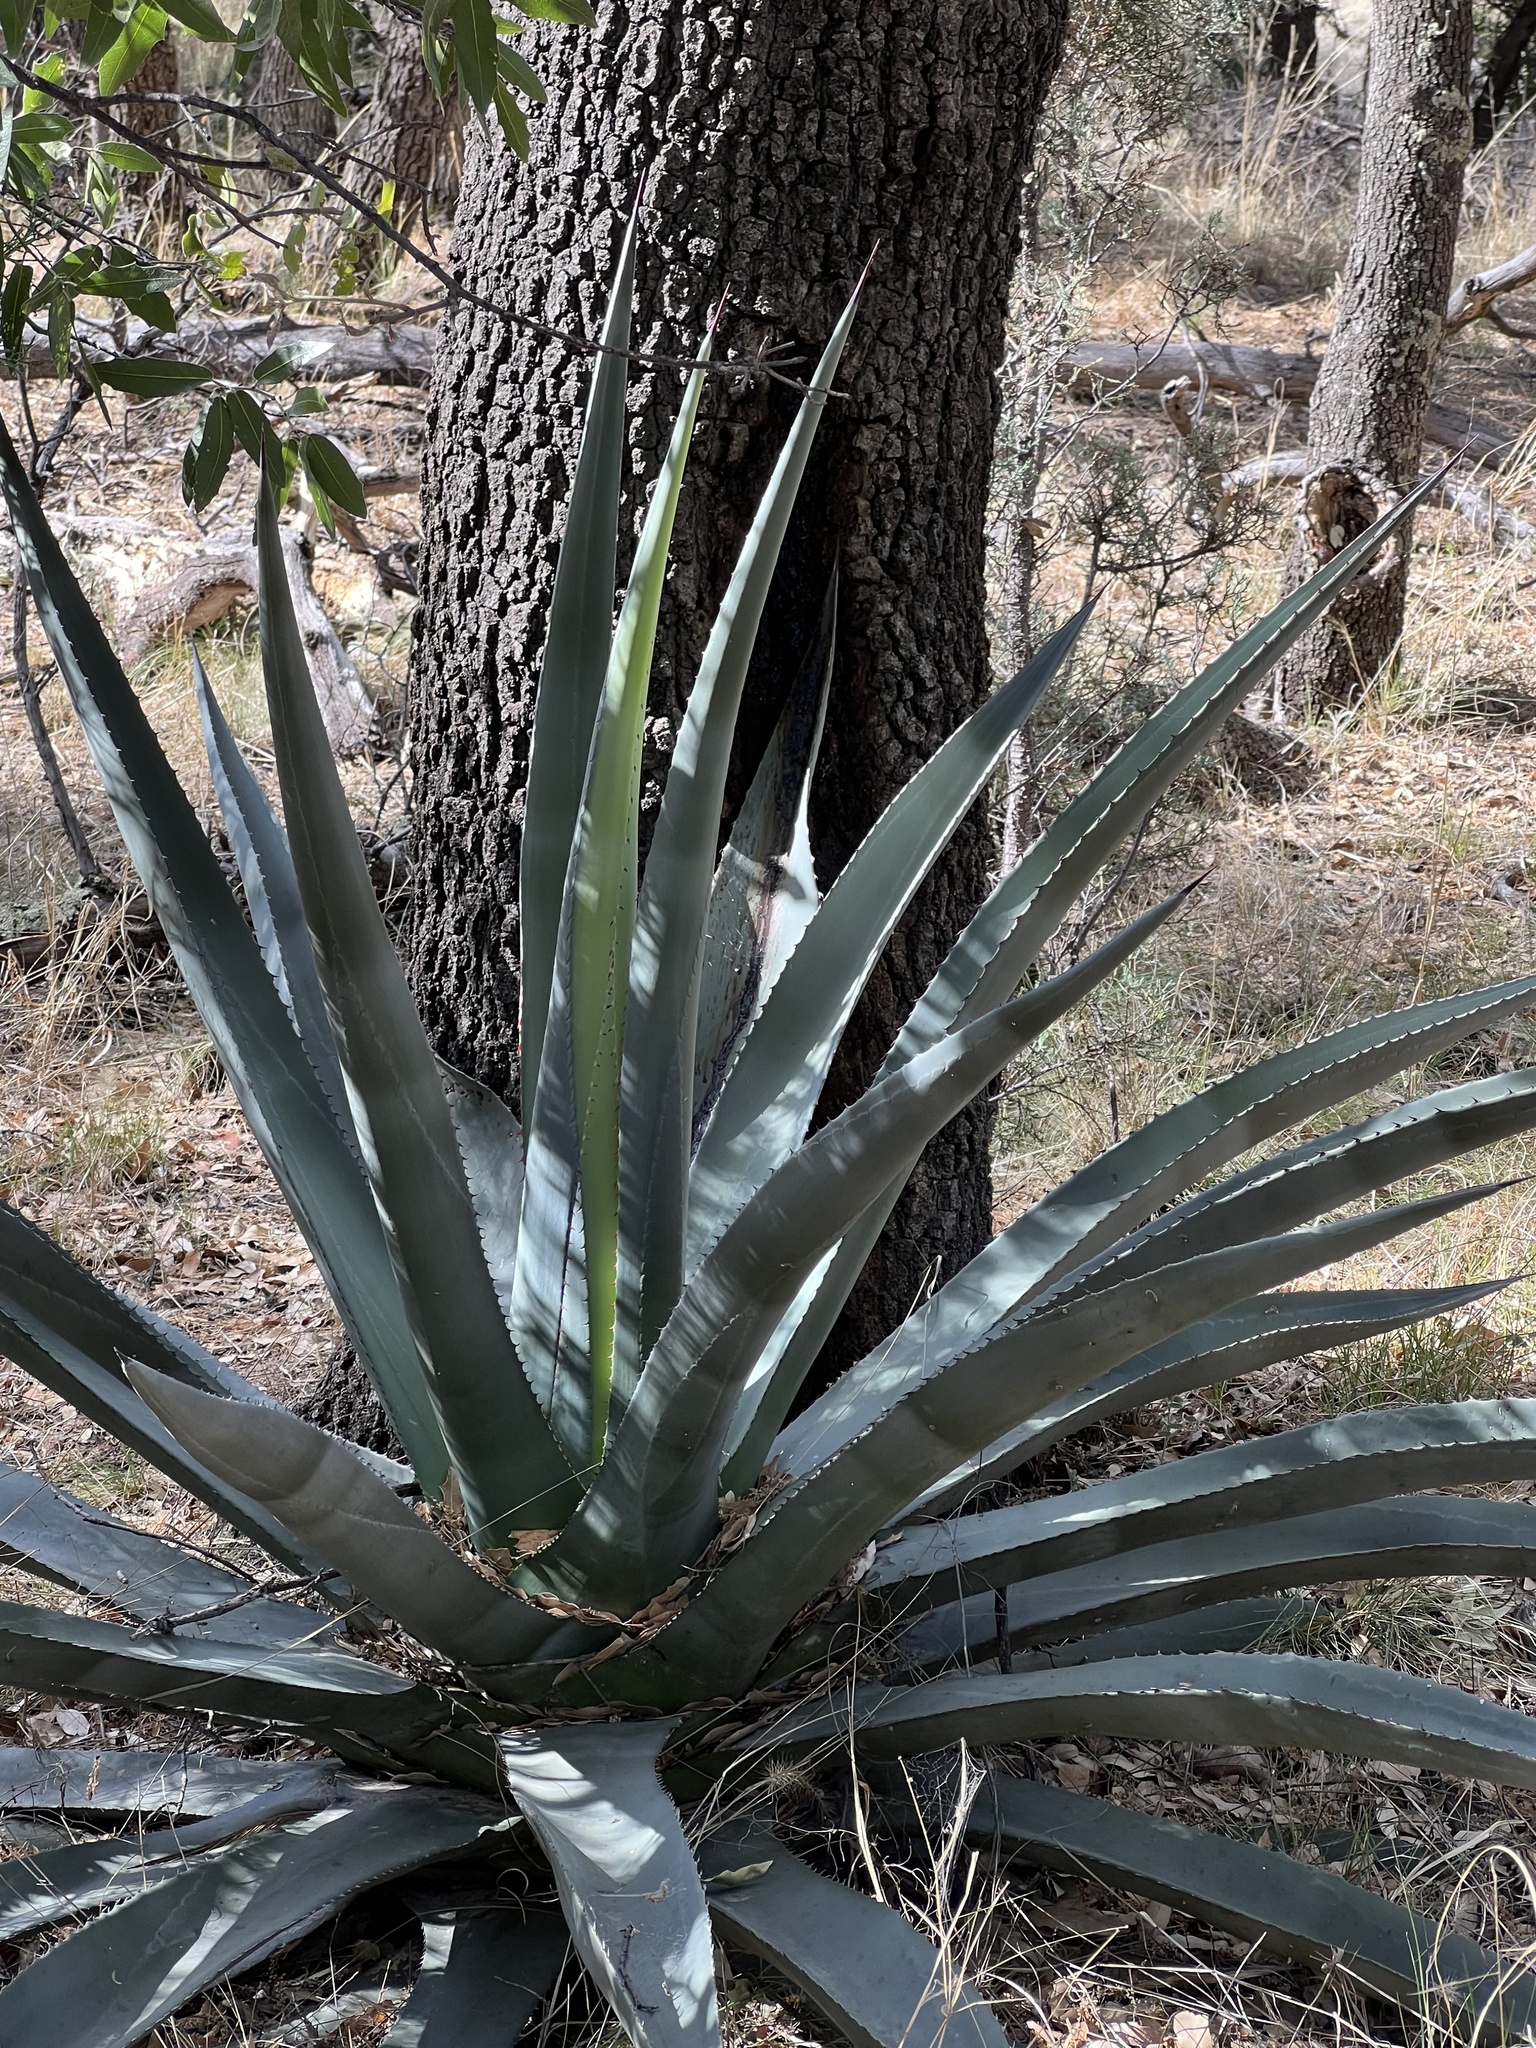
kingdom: Plantae
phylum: Tracheophyta
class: Liliopsida
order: Asparagales
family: Asparagaceae
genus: Agave
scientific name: Agave palmeri
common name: Palmer agave
